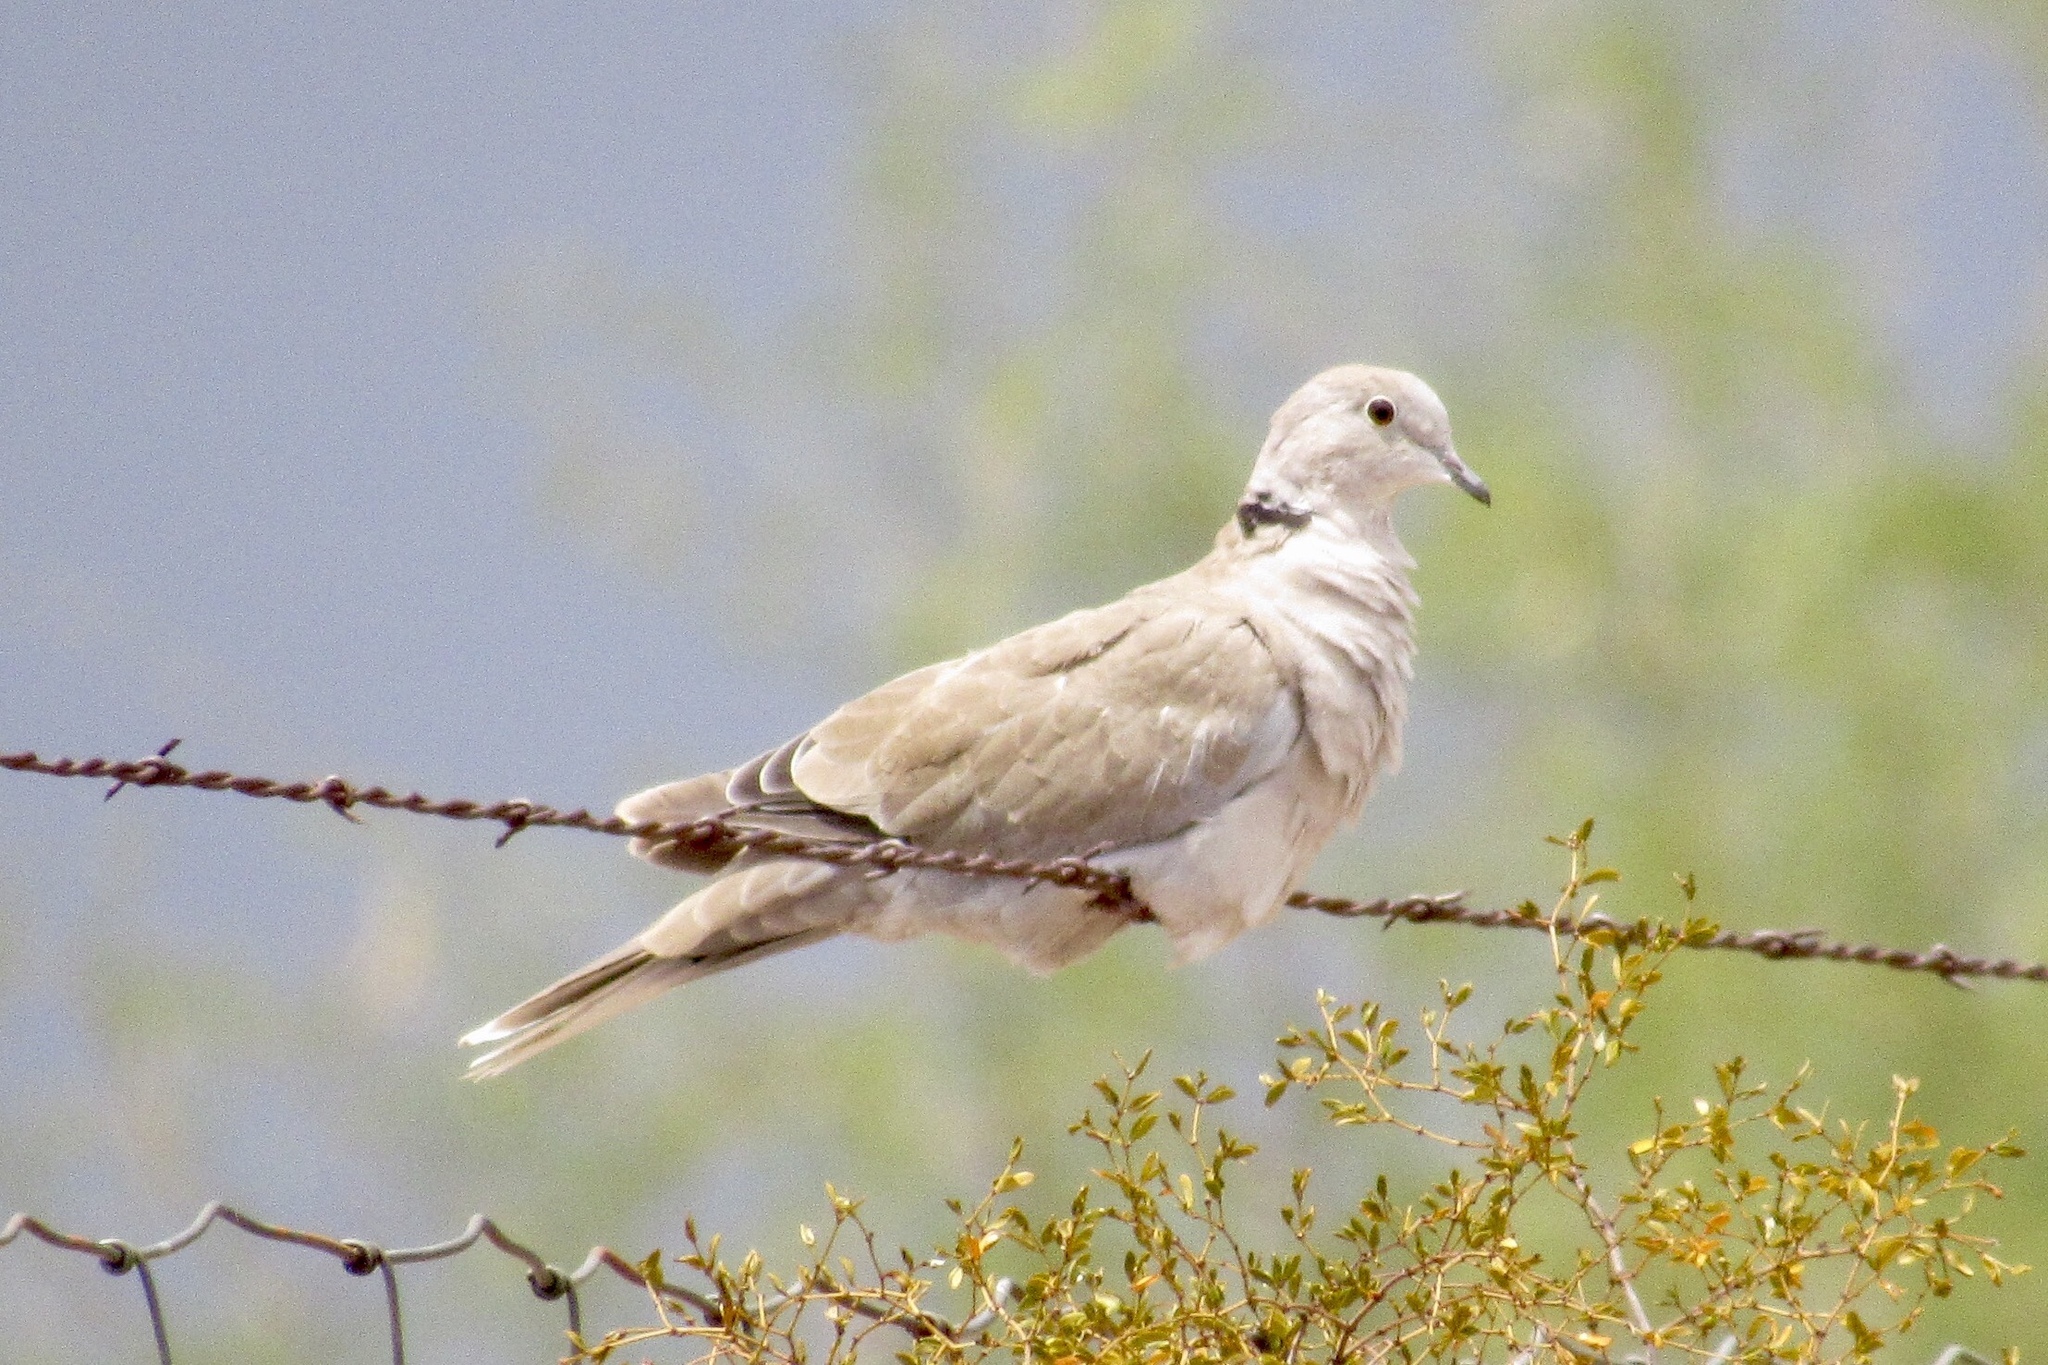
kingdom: Animalia
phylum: Chordata
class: Aves
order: Columbiformes
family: Columbidae
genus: Streptopelia
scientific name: Streptopelia decaocto
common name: Eurasian collared dove
